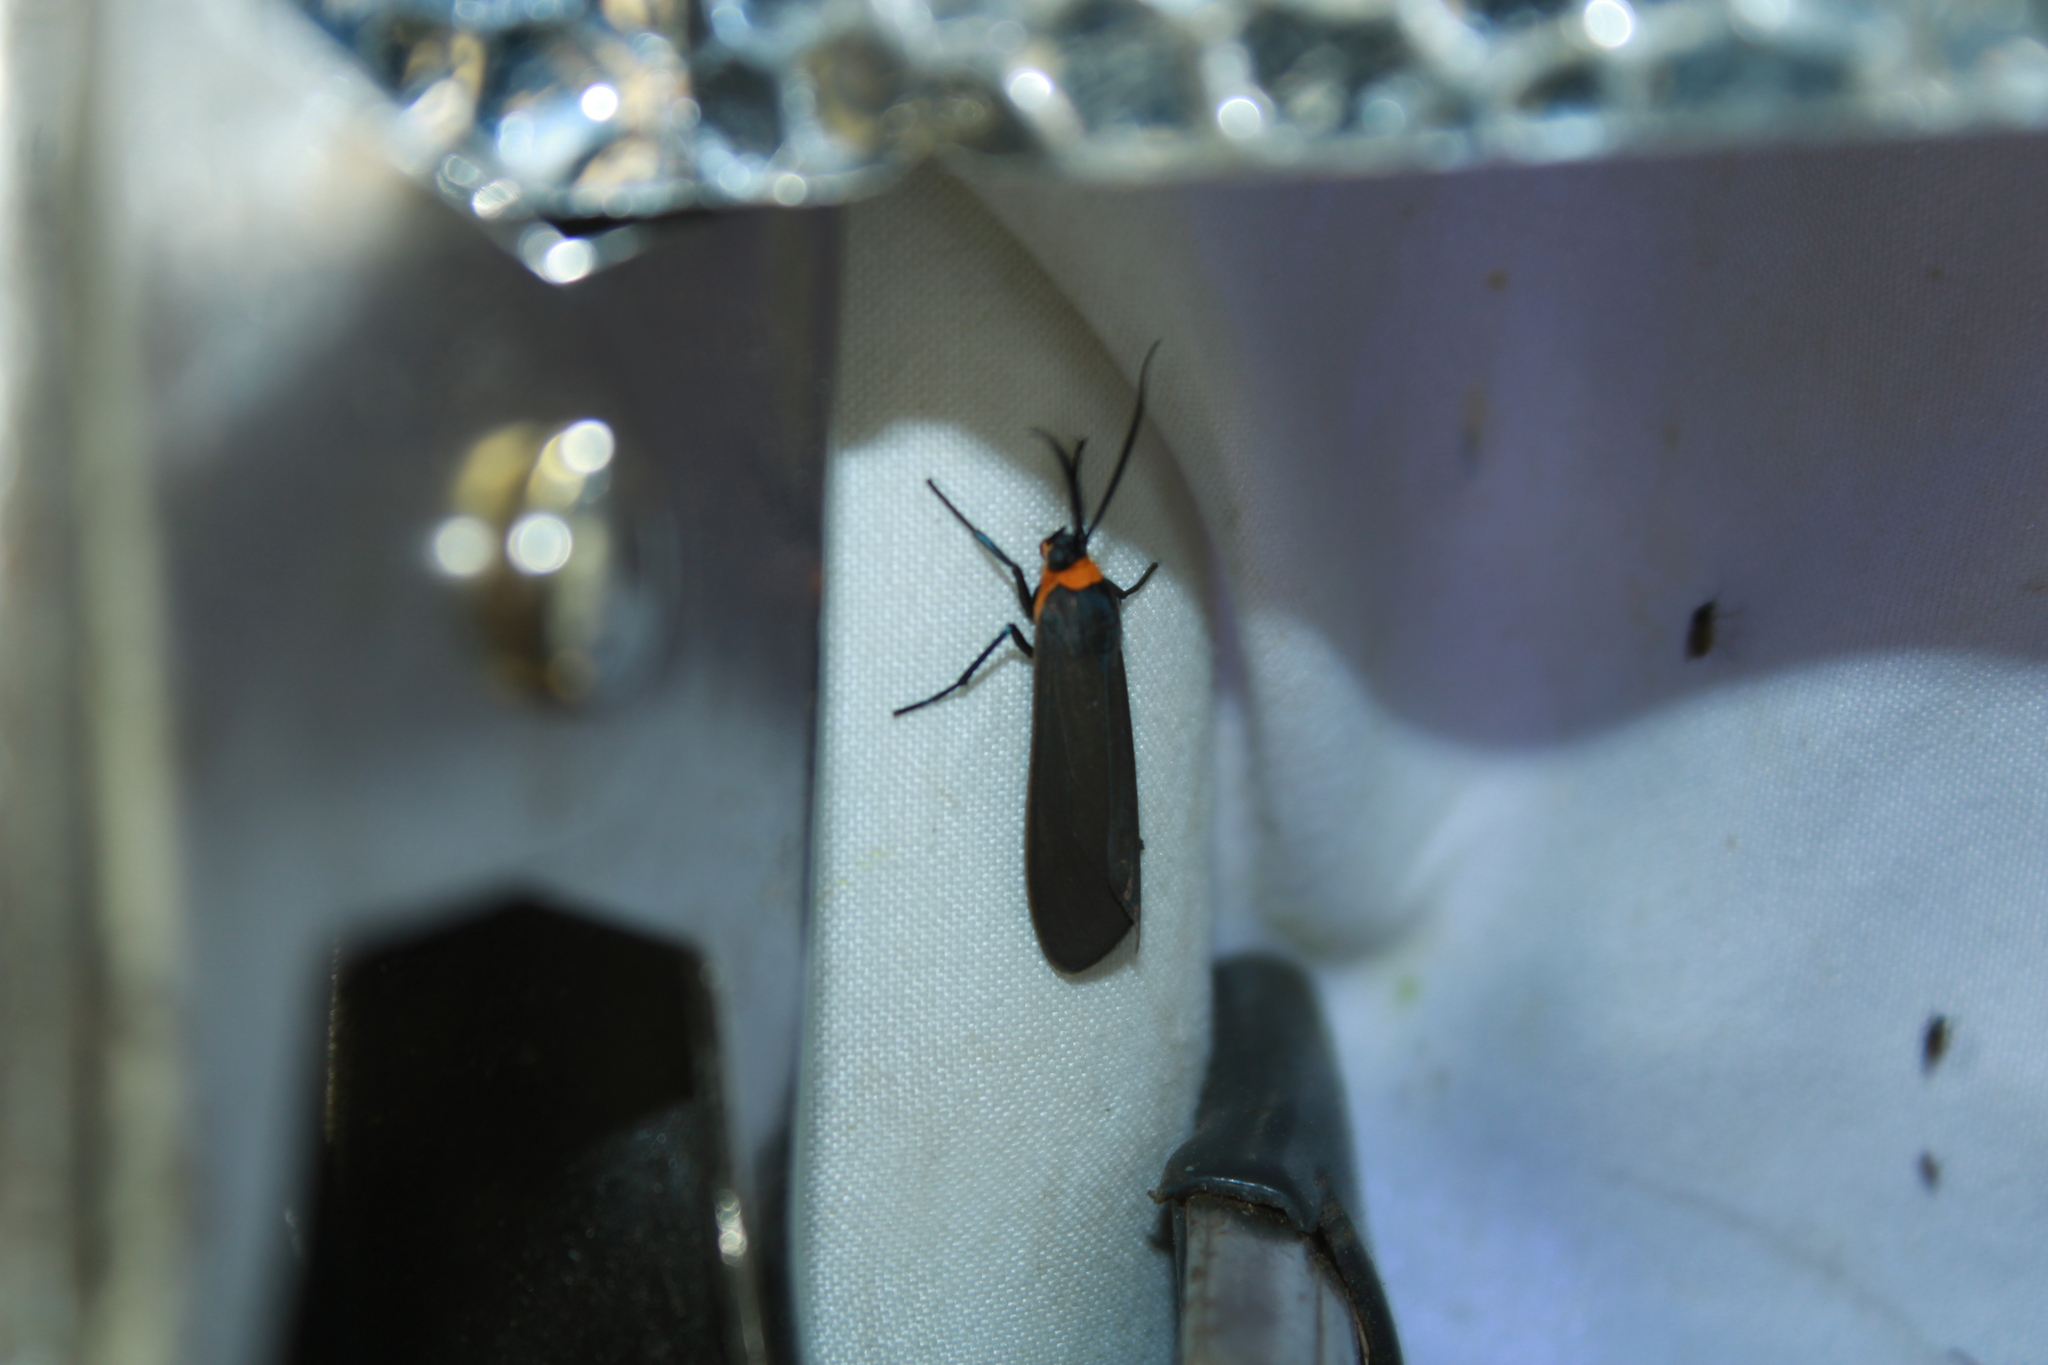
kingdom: Animalia
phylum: Arthropoda
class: Insecta
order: Lepidoptera
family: Erebidae
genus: Cisseps
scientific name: Cisseps fulvicollis
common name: Yellow-collared scape moth
